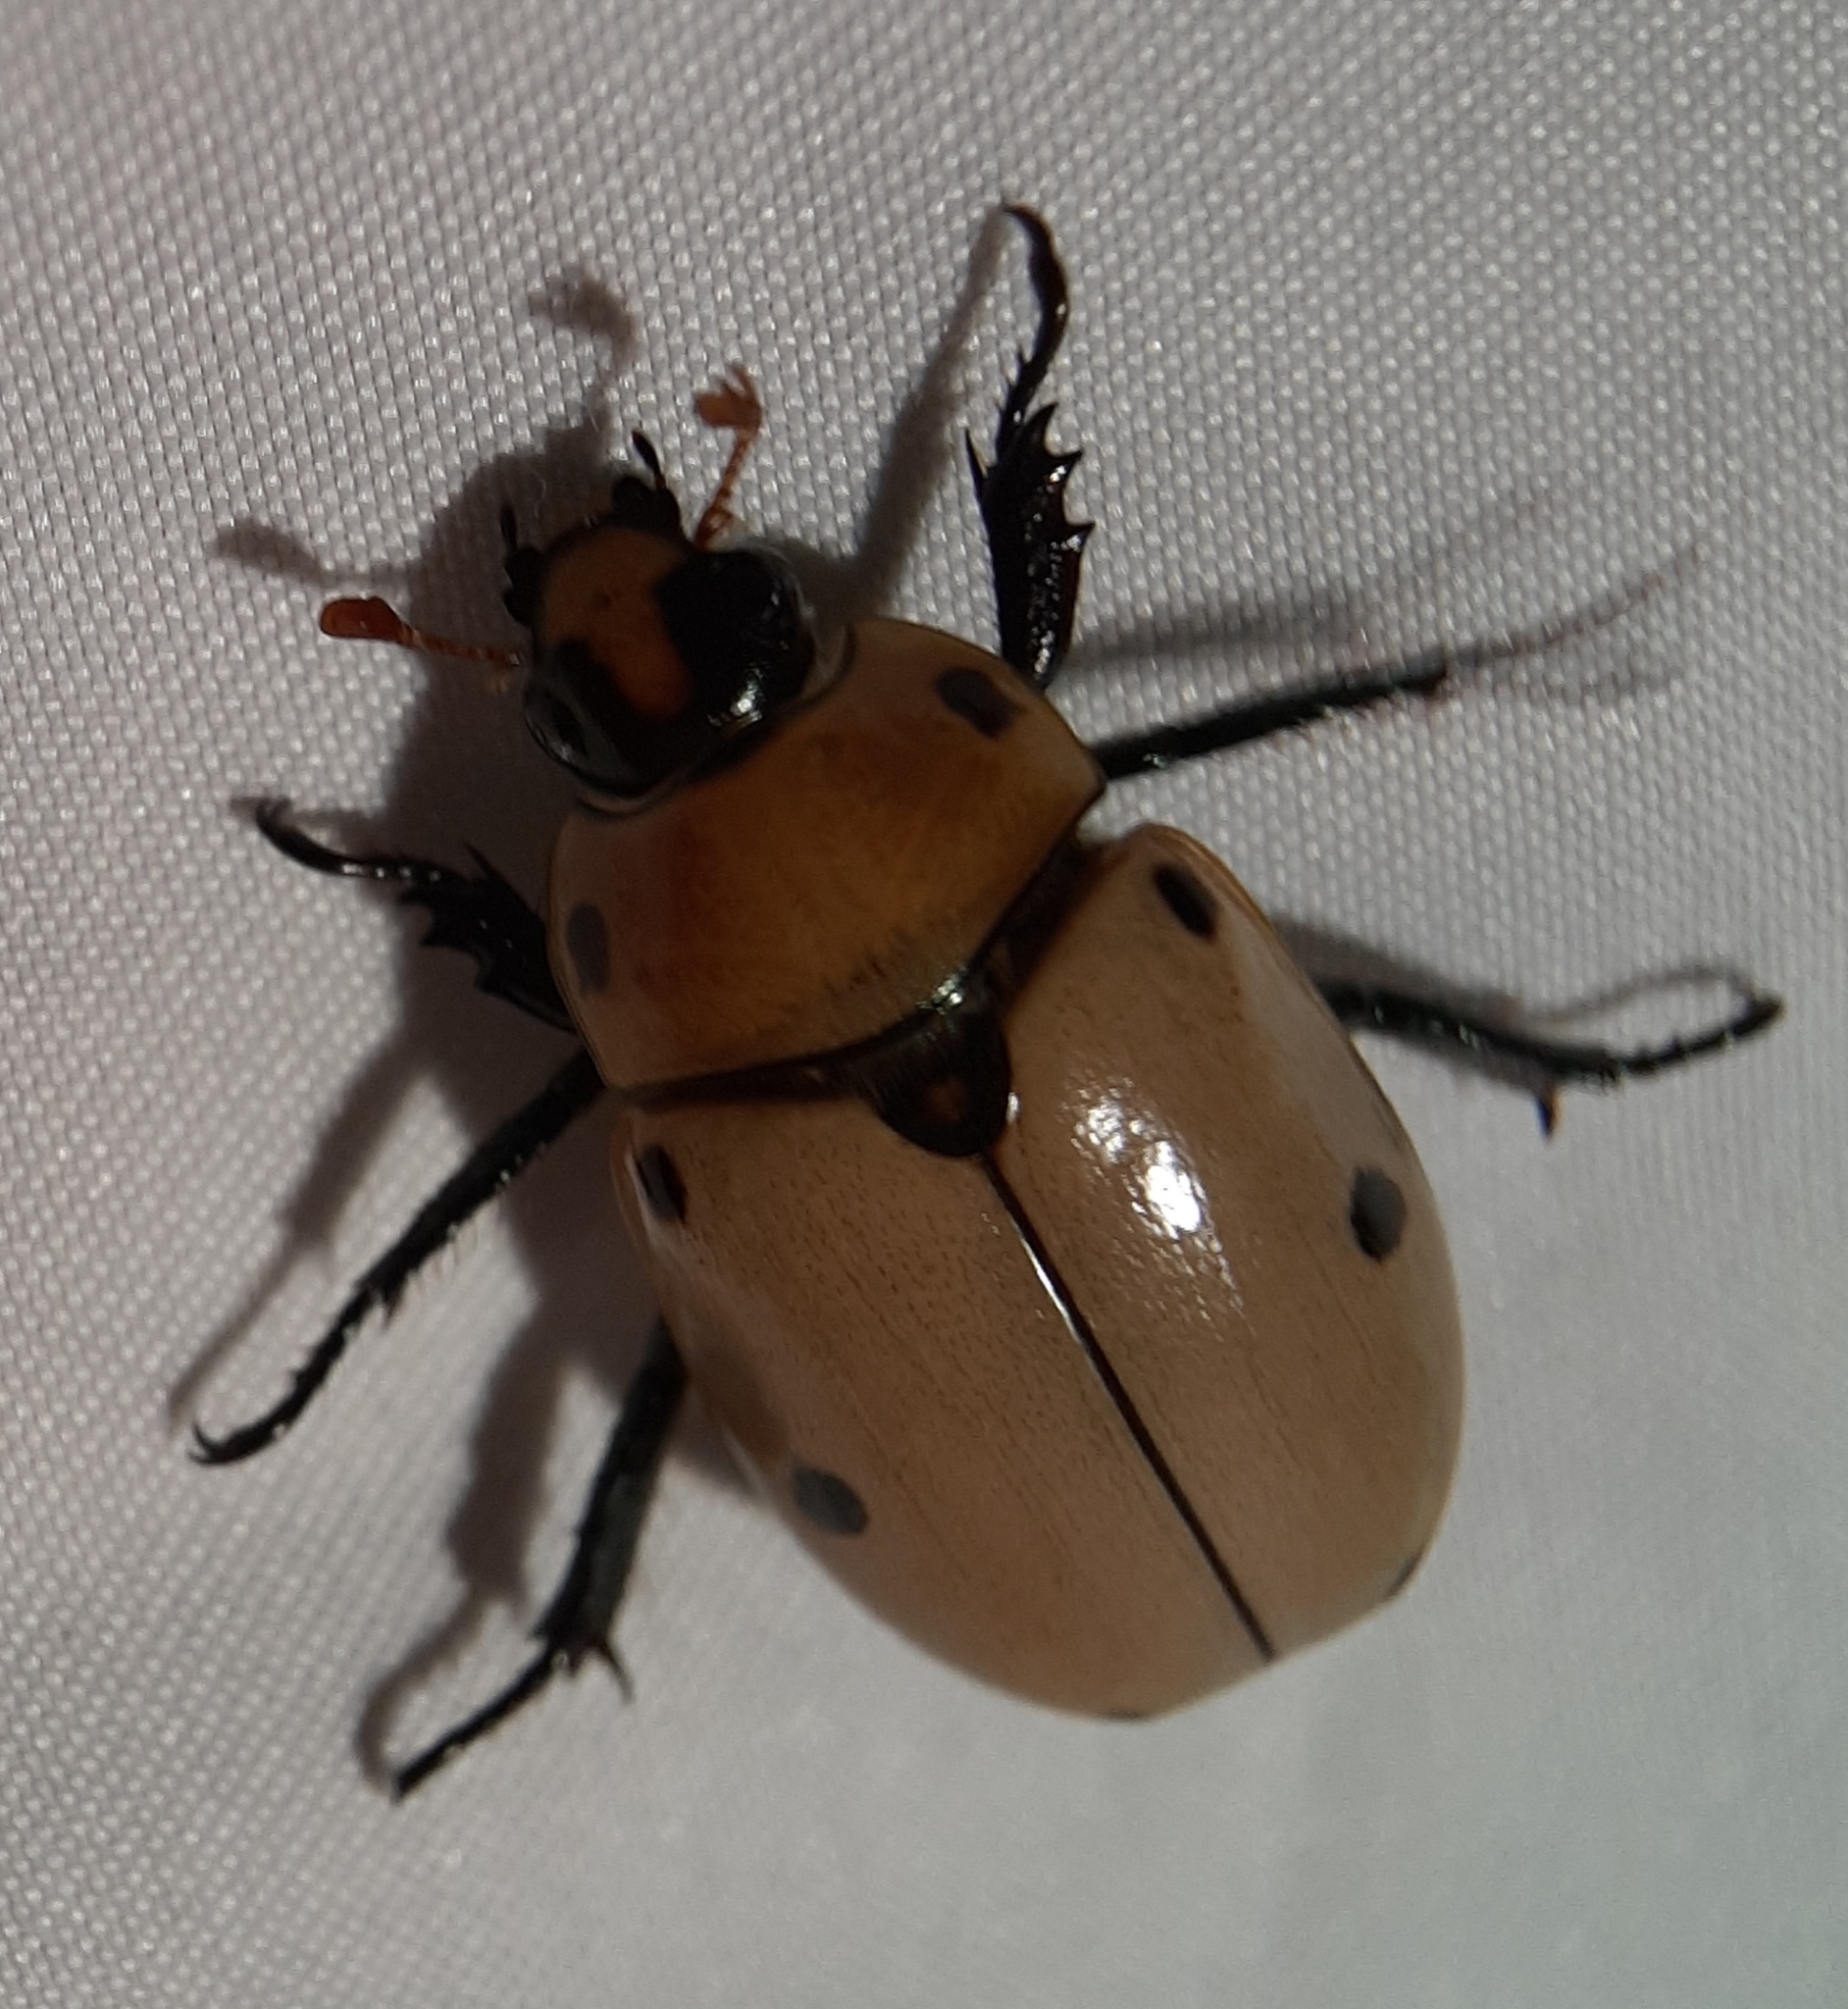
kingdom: Animalia
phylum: Arthropoda
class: Insecta
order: Coleoptera
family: Scarabaeidae
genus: Pelidnota
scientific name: Pelidnota punctata
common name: Grapevine beetle
